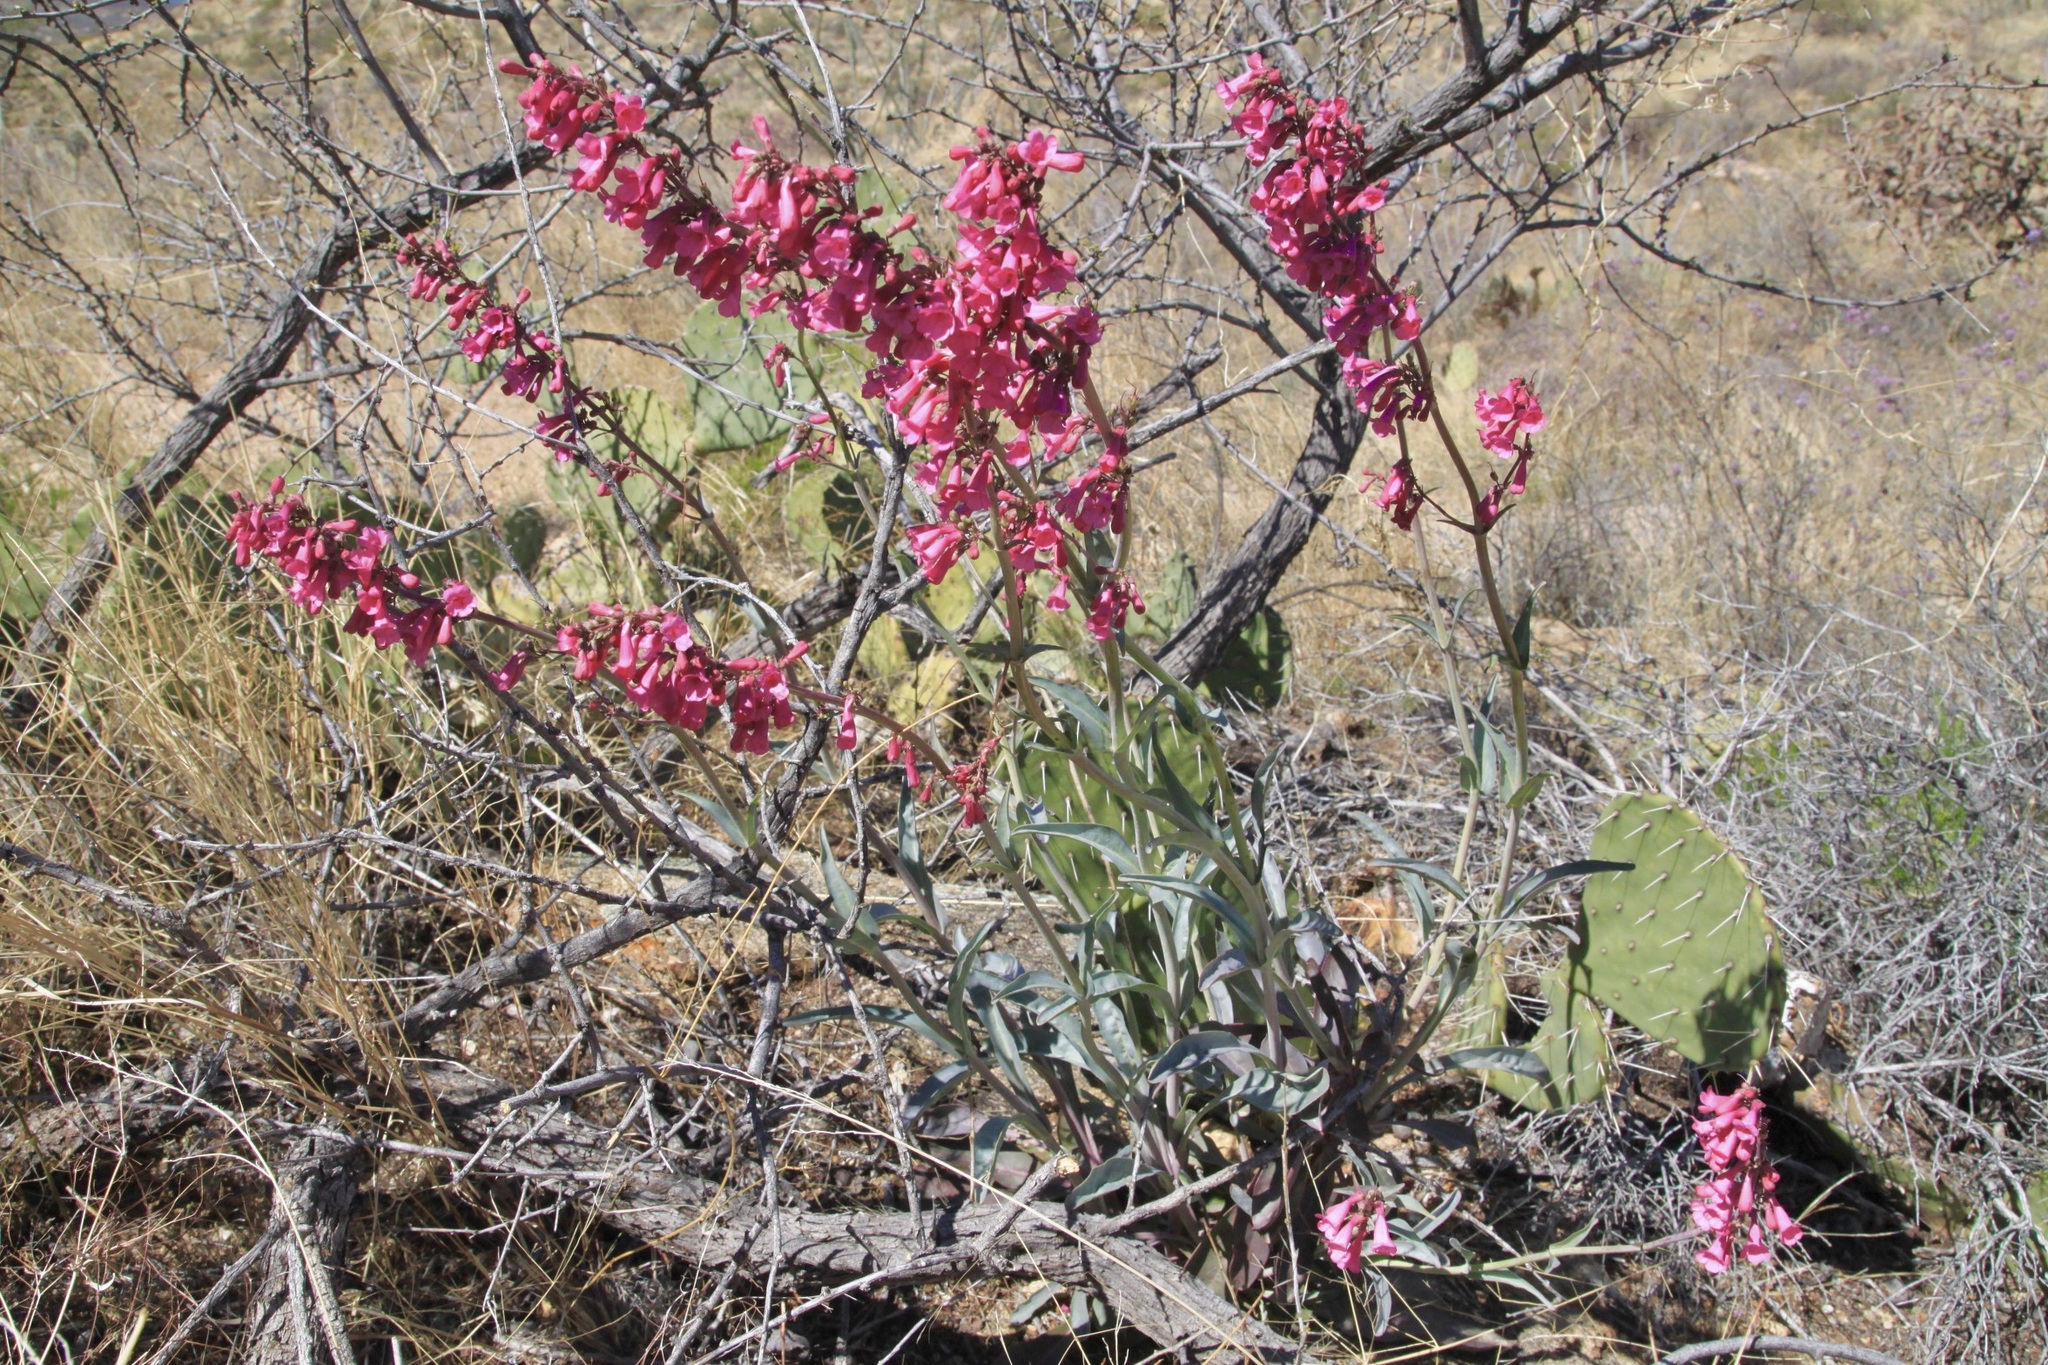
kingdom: Plantae
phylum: Tracheophyta
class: Magnoliopsida
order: Lamiales
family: Plantaginaceae
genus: Penstemon
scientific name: Penstemon parryi
